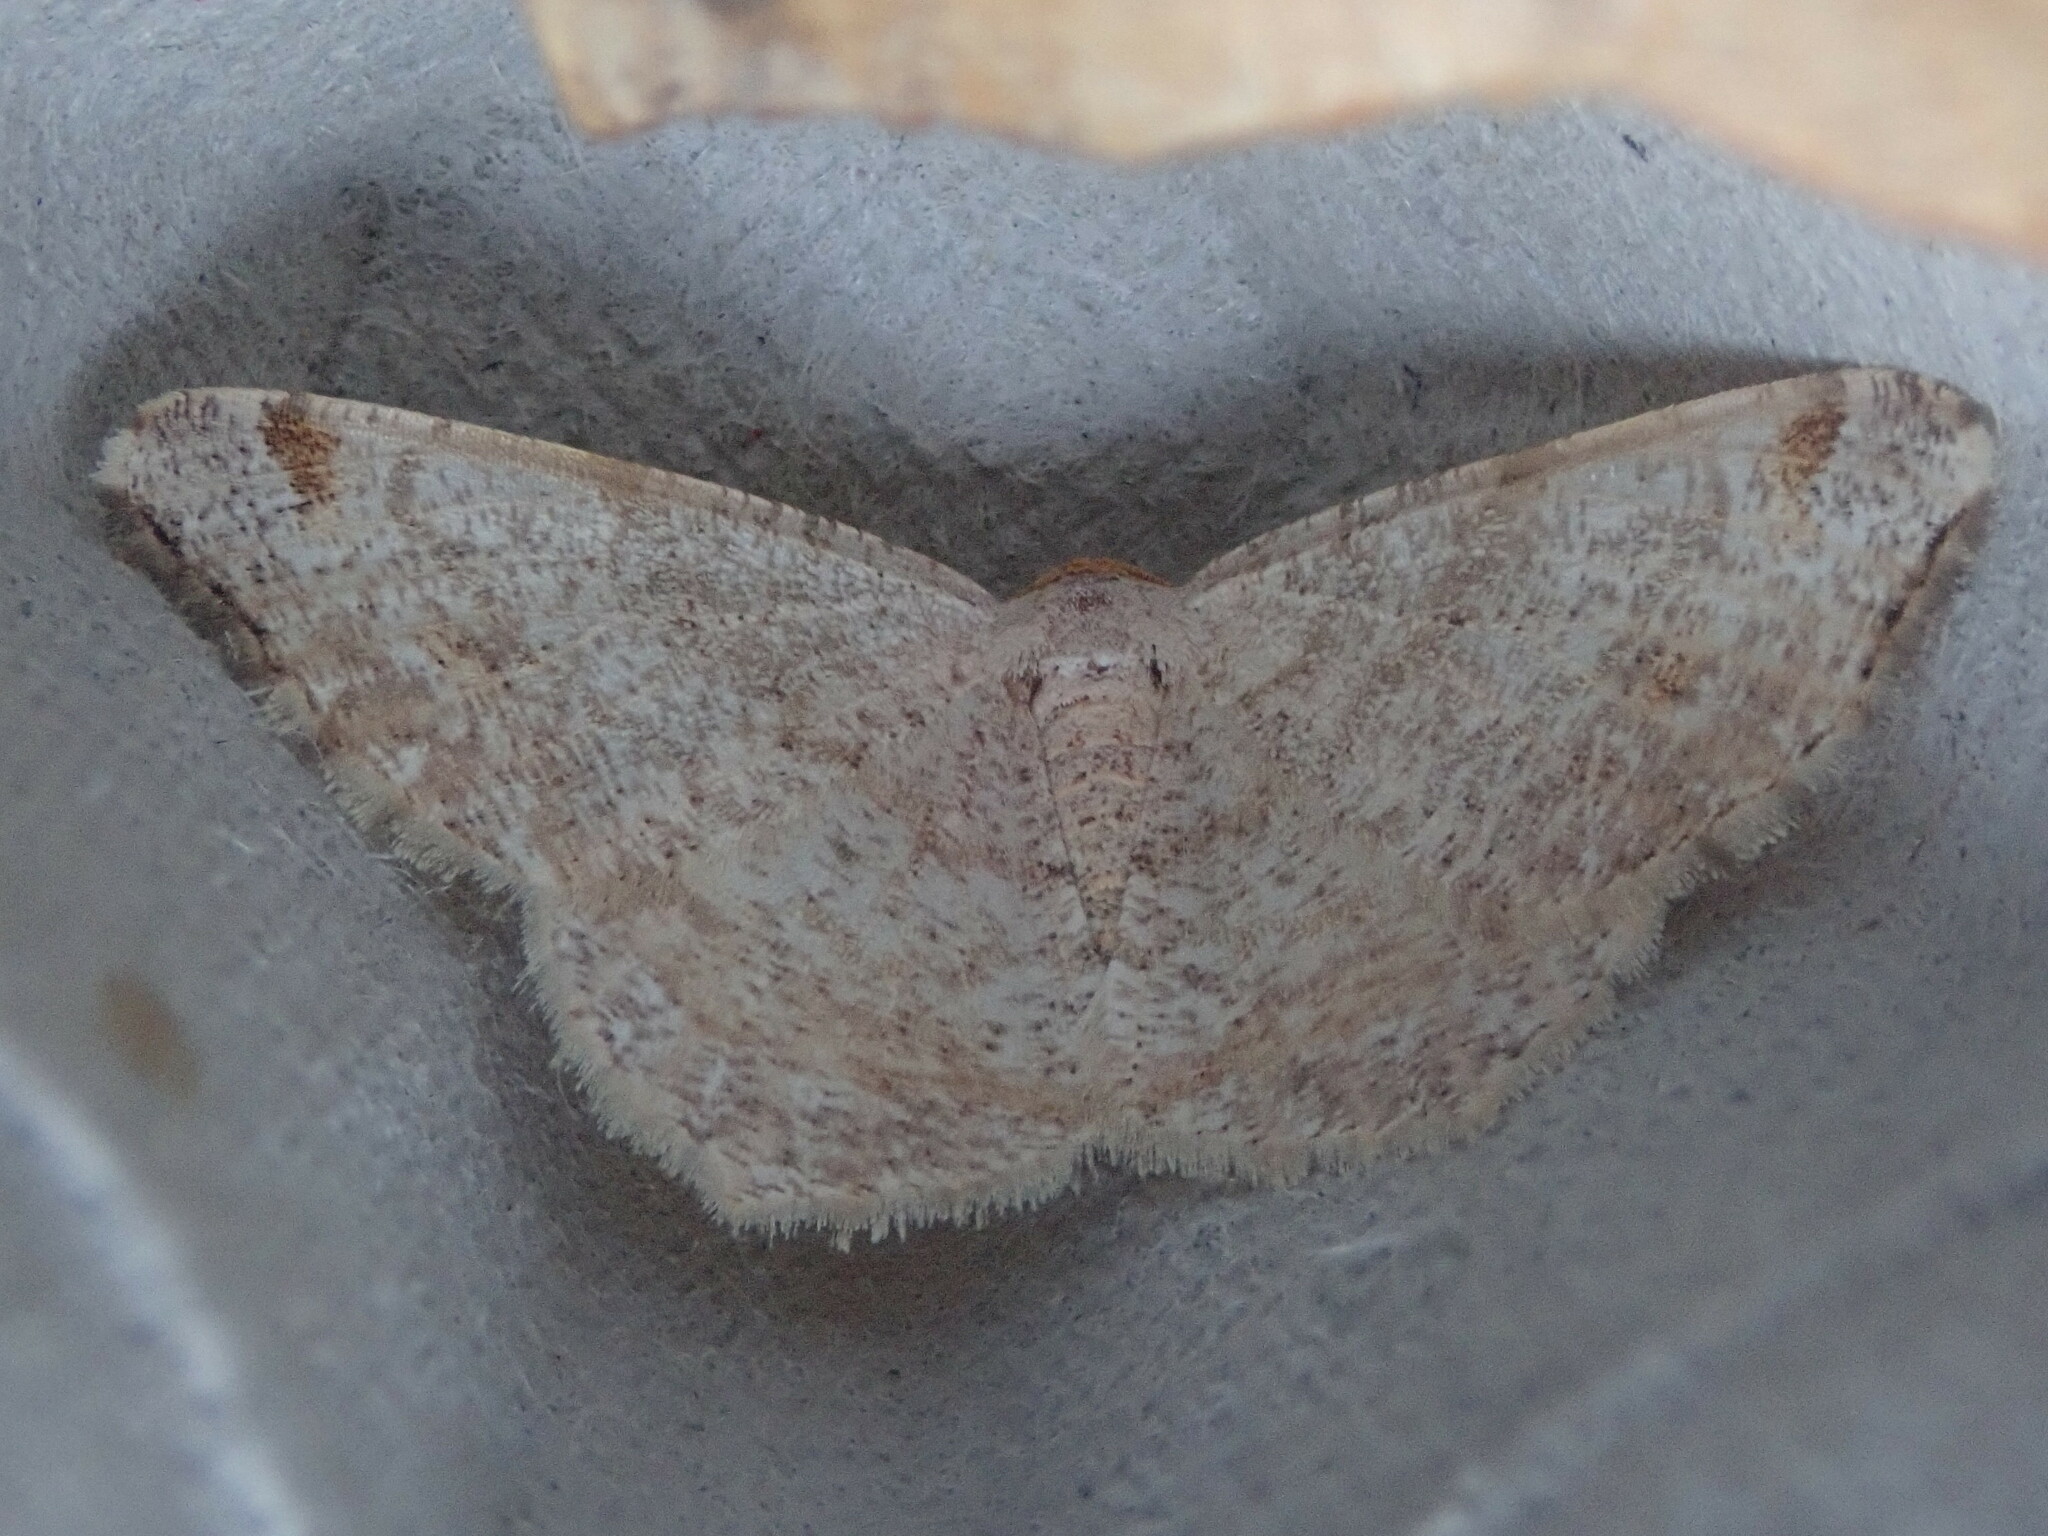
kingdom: Animalia
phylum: Arthropoda
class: Insecta
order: Lepidoptera
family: Geometridae
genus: Macaria
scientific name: Macaria bisignata
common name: Red-headed inchworm
